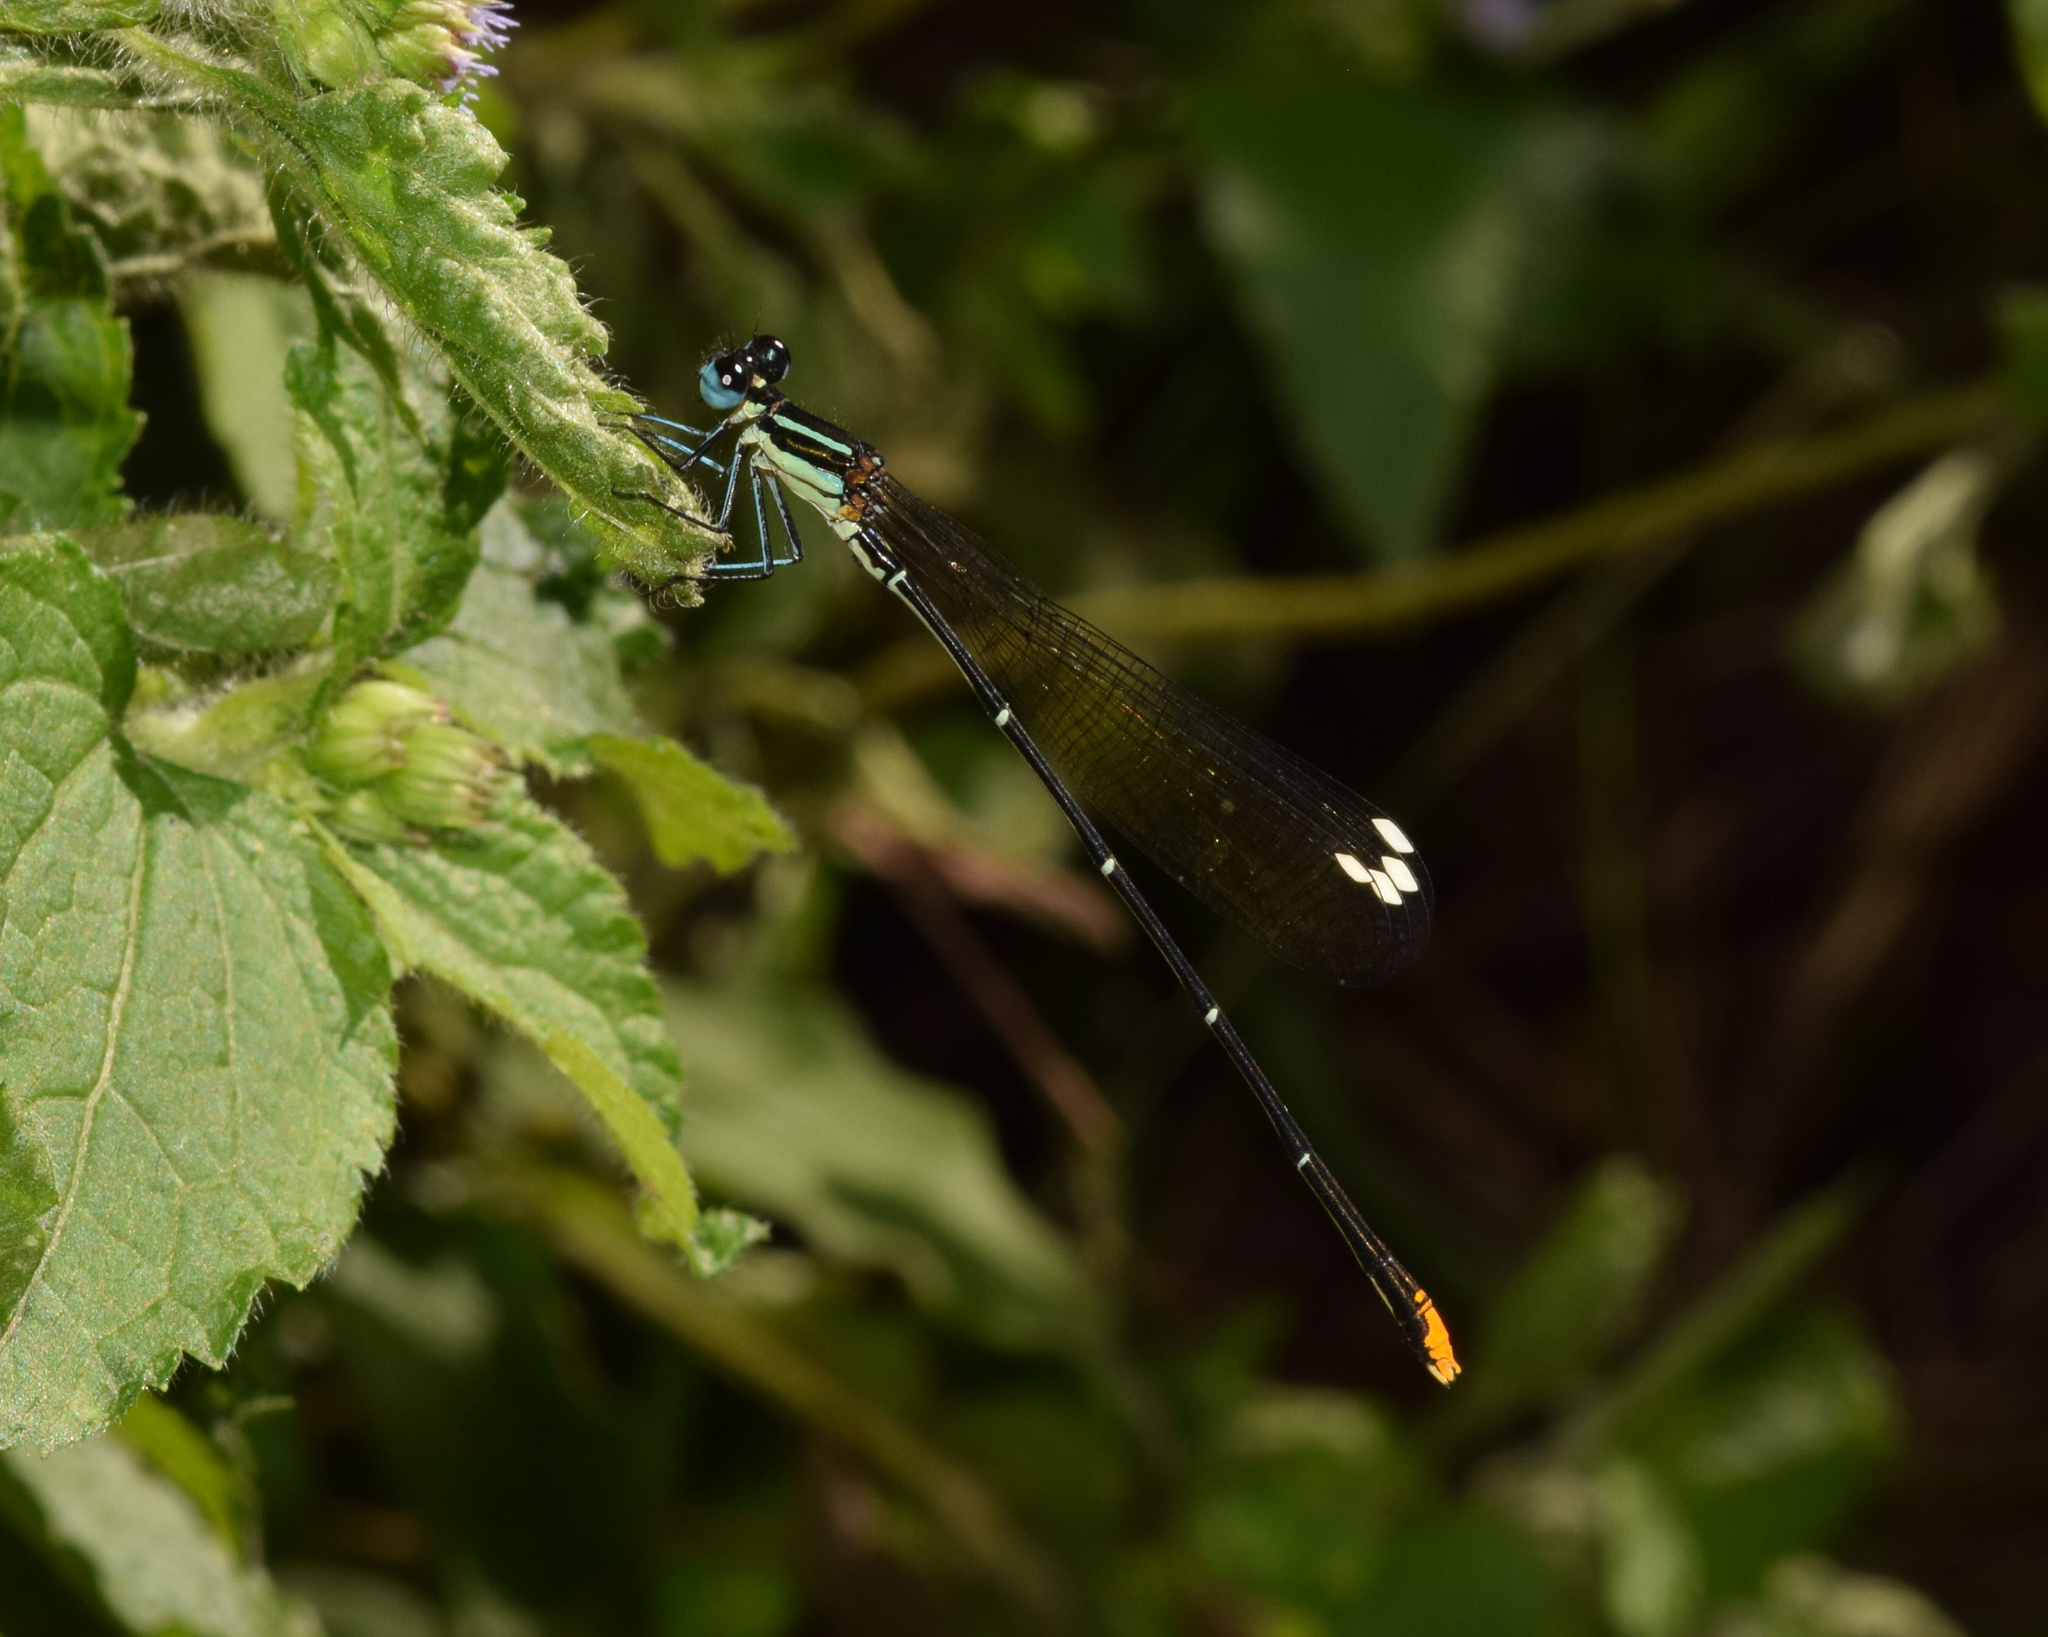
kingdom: Animalia
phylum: Arthropoda
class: Insecta
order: Odonata
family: Platycnemididae
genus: Allocnemis
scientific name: Allocnemis leucosticta
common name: Goldtail
